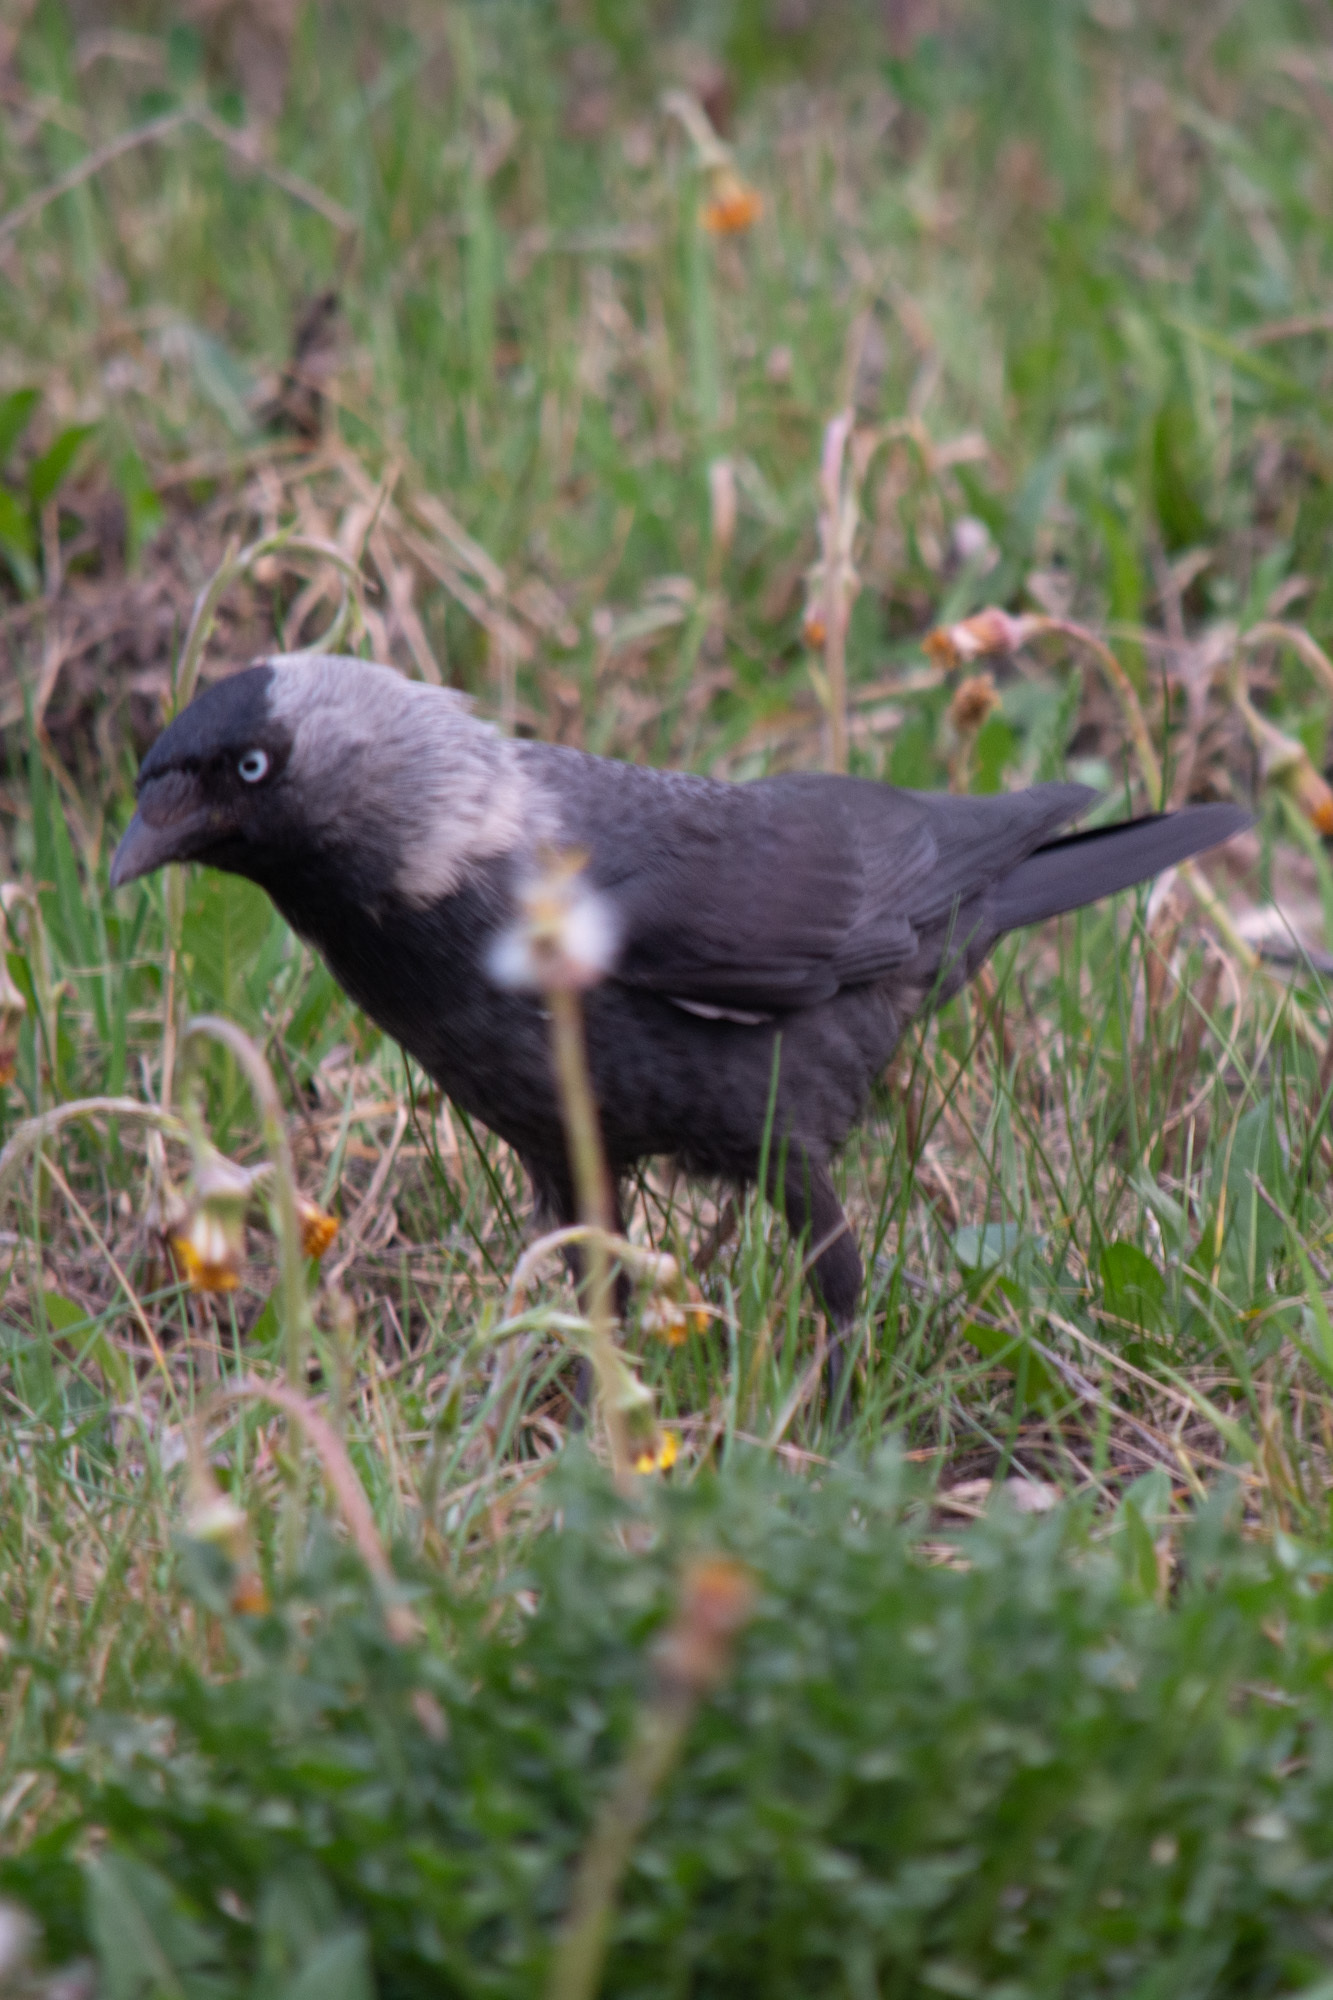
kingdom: Animalia
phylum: Chordata
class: Aves
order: Passeriformes
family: Corvidae
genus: Coloeus
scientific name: Coloeus monedula
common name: Western jackdaw
